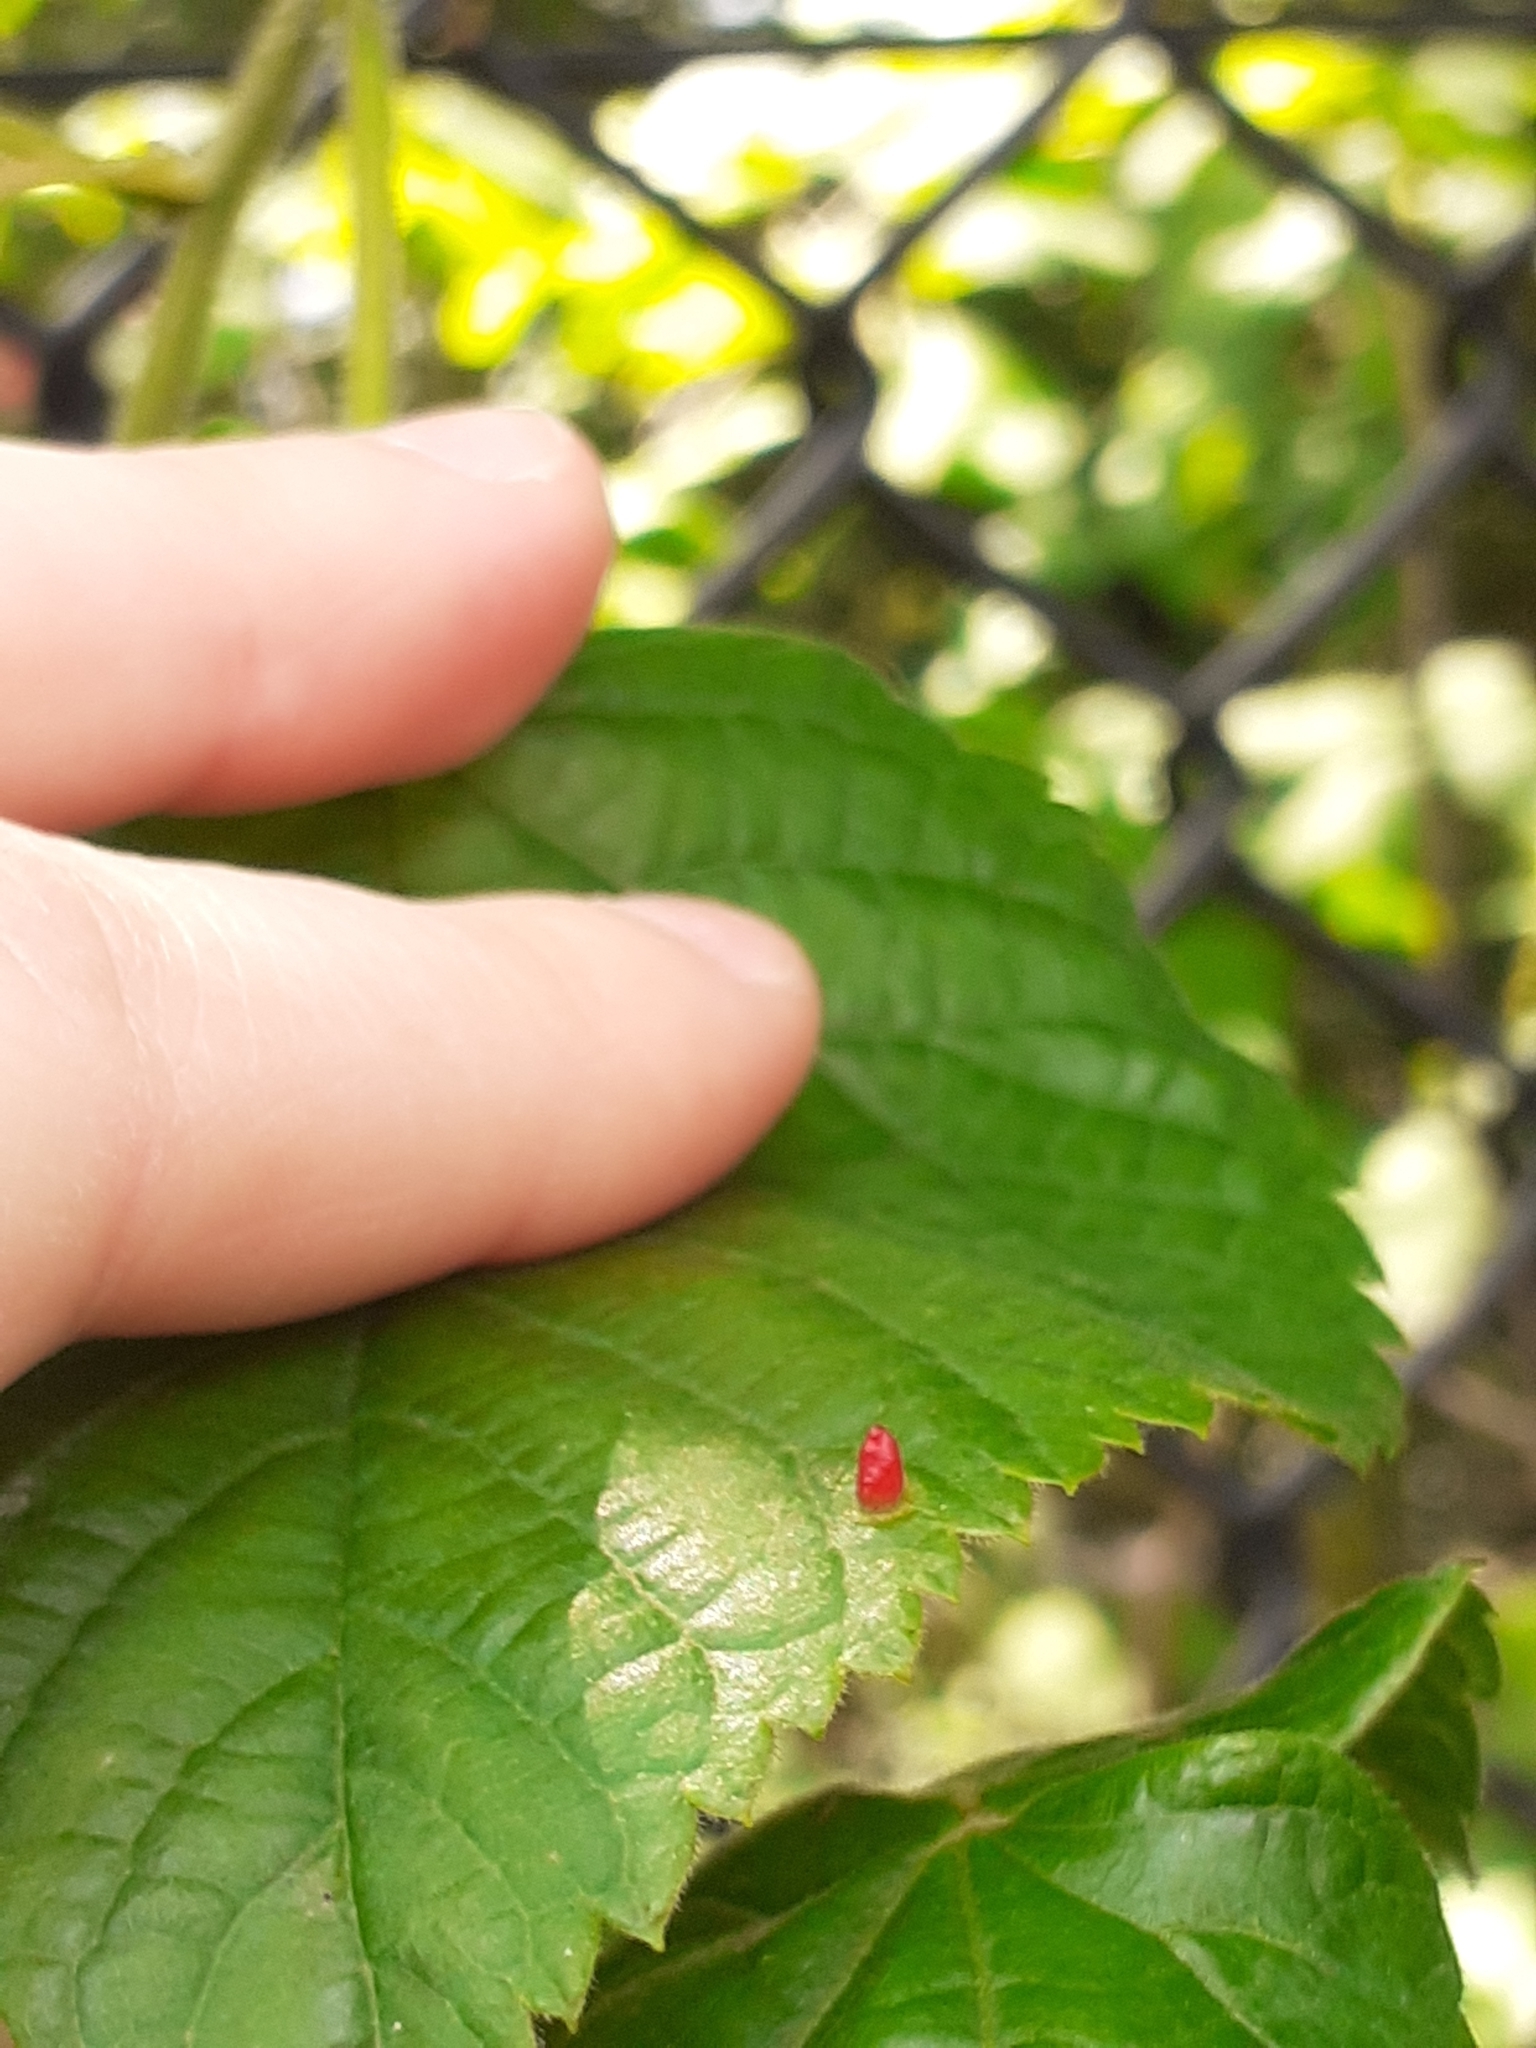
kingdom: Animalia
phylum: Arthropoda
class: Arachnida
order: Trombidiformes
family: Eriophyidae
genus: Eriophyes
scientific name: Eriophyes tiliae
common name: Red nail gall mite
